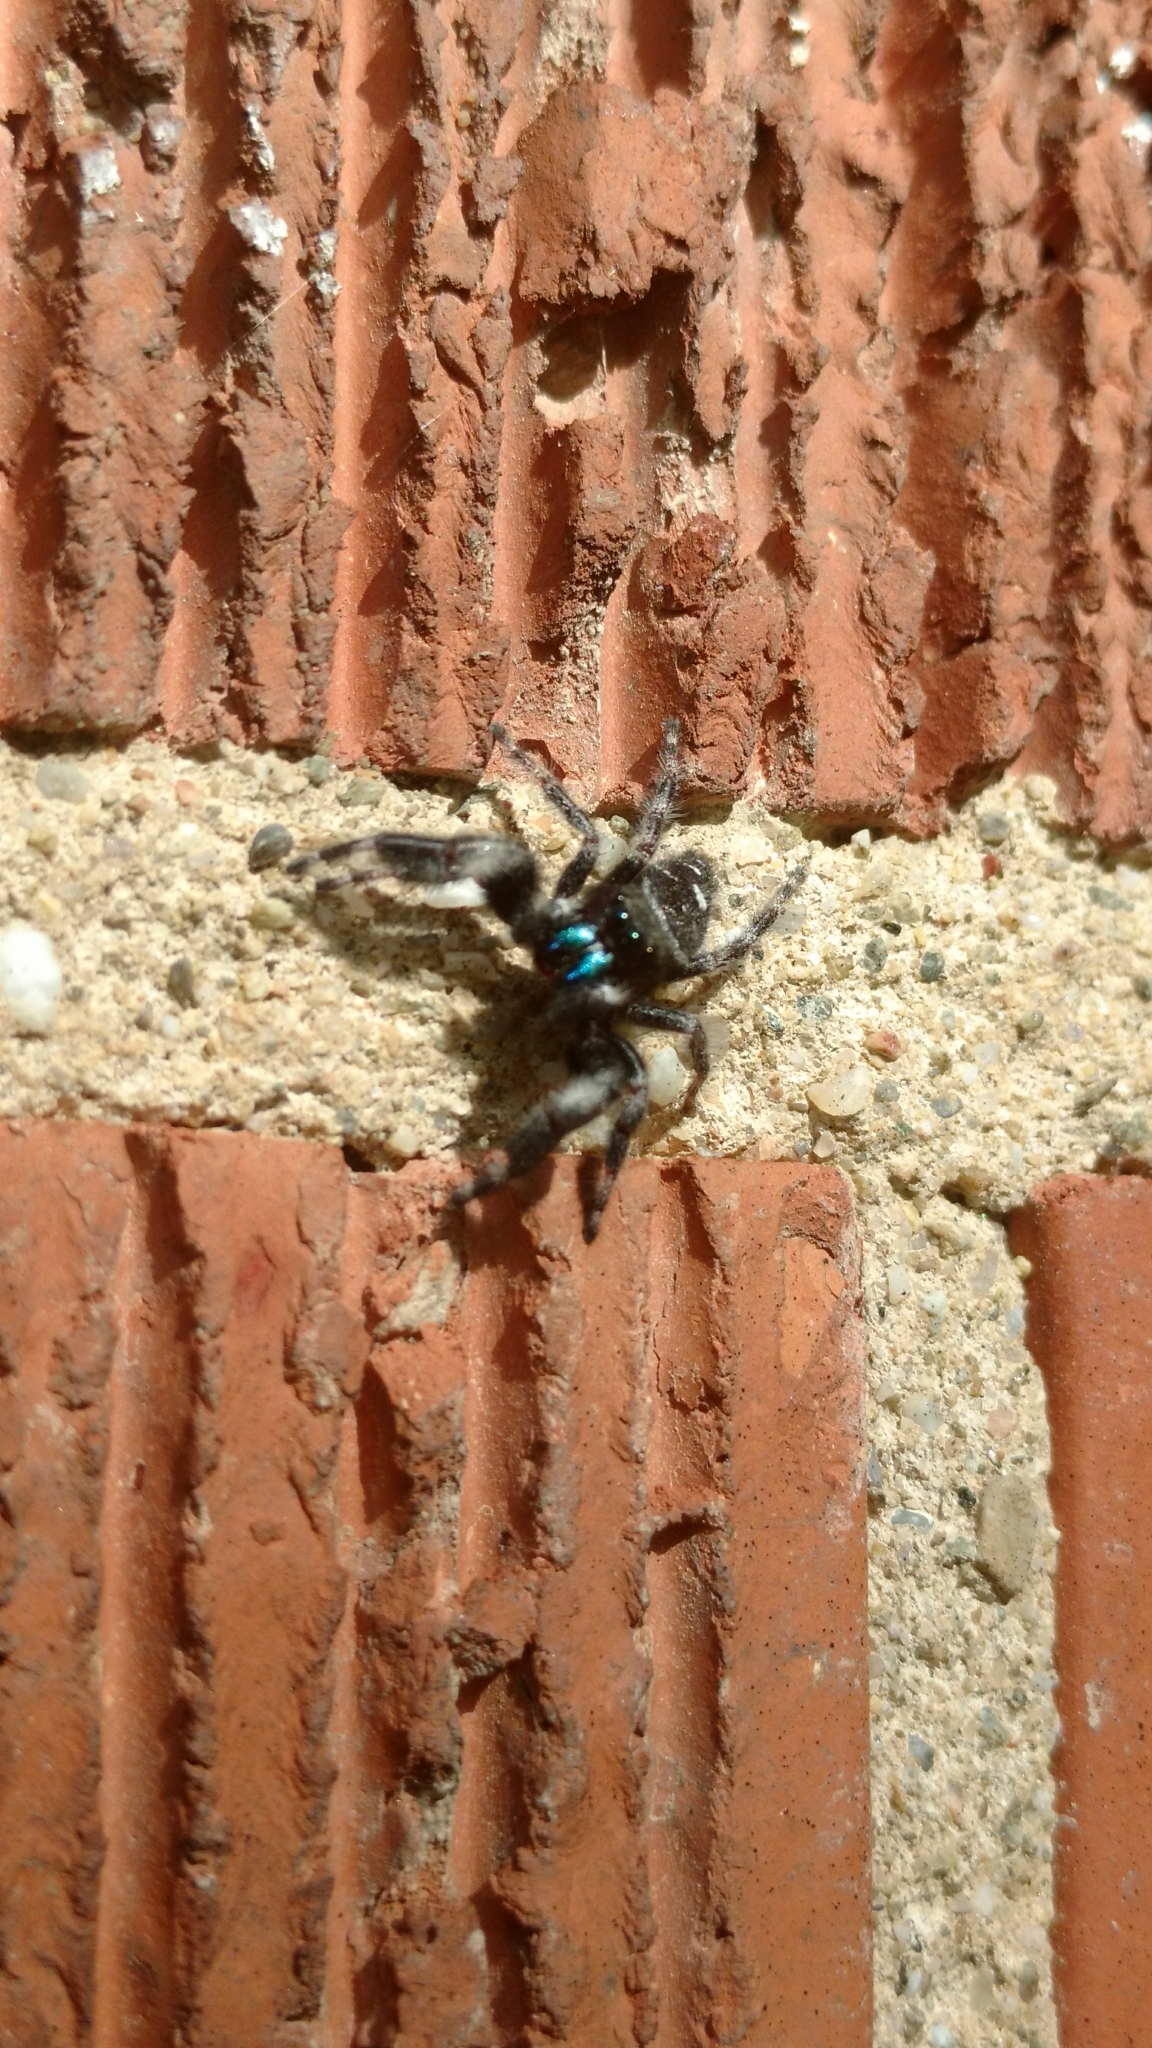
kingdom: Animalia
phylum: Arthropoda
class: Arachnida
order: Araneae
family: Salticidae
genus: Phidippus
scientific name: Phidippus audax
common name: Bold jumper
